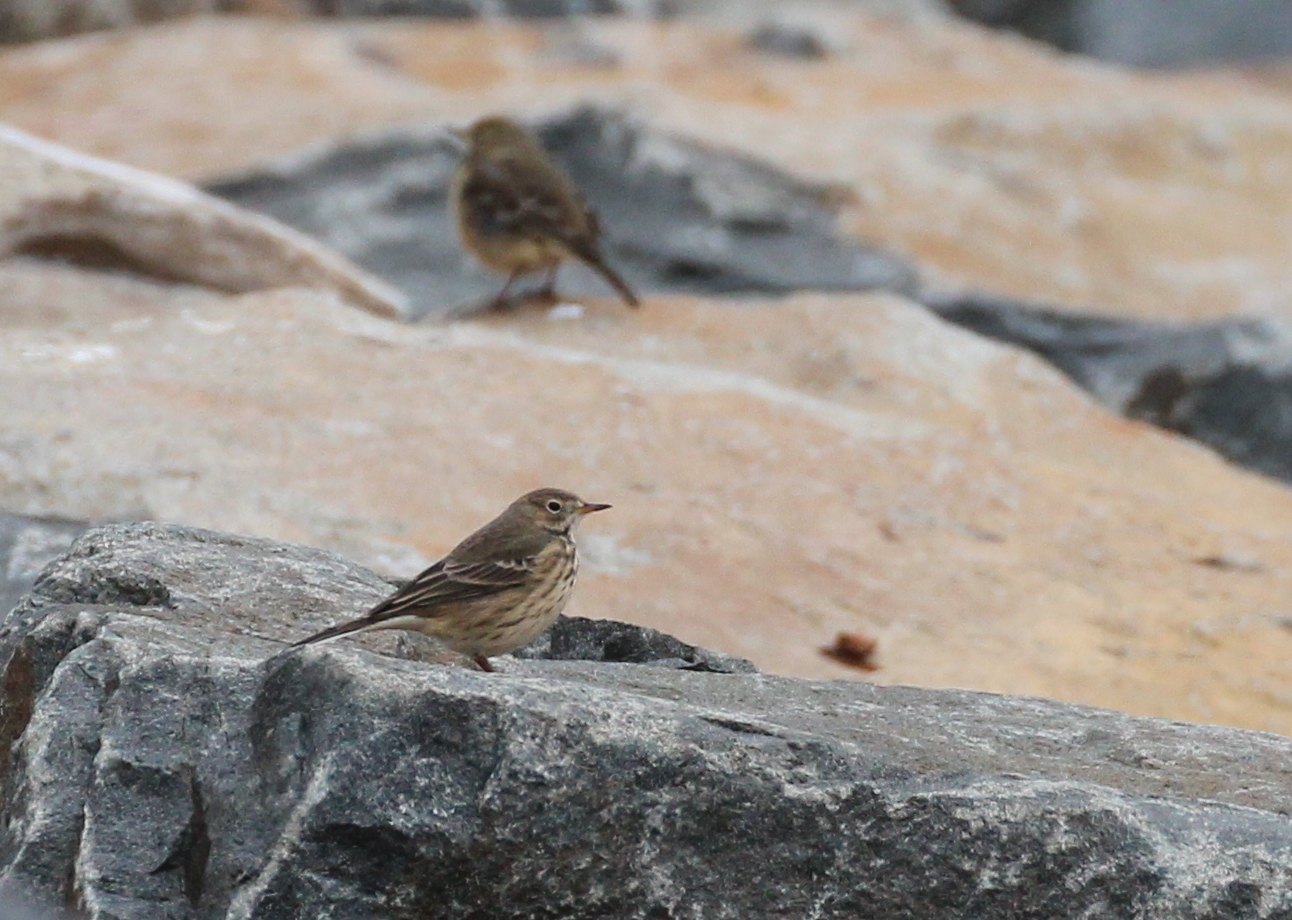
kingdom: Animalia
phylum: Chordata
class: Aves
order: Passeriformes
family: Motacillidae
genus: Anthus
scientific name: Anthus rubescens
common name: Buff-bellied pipit
